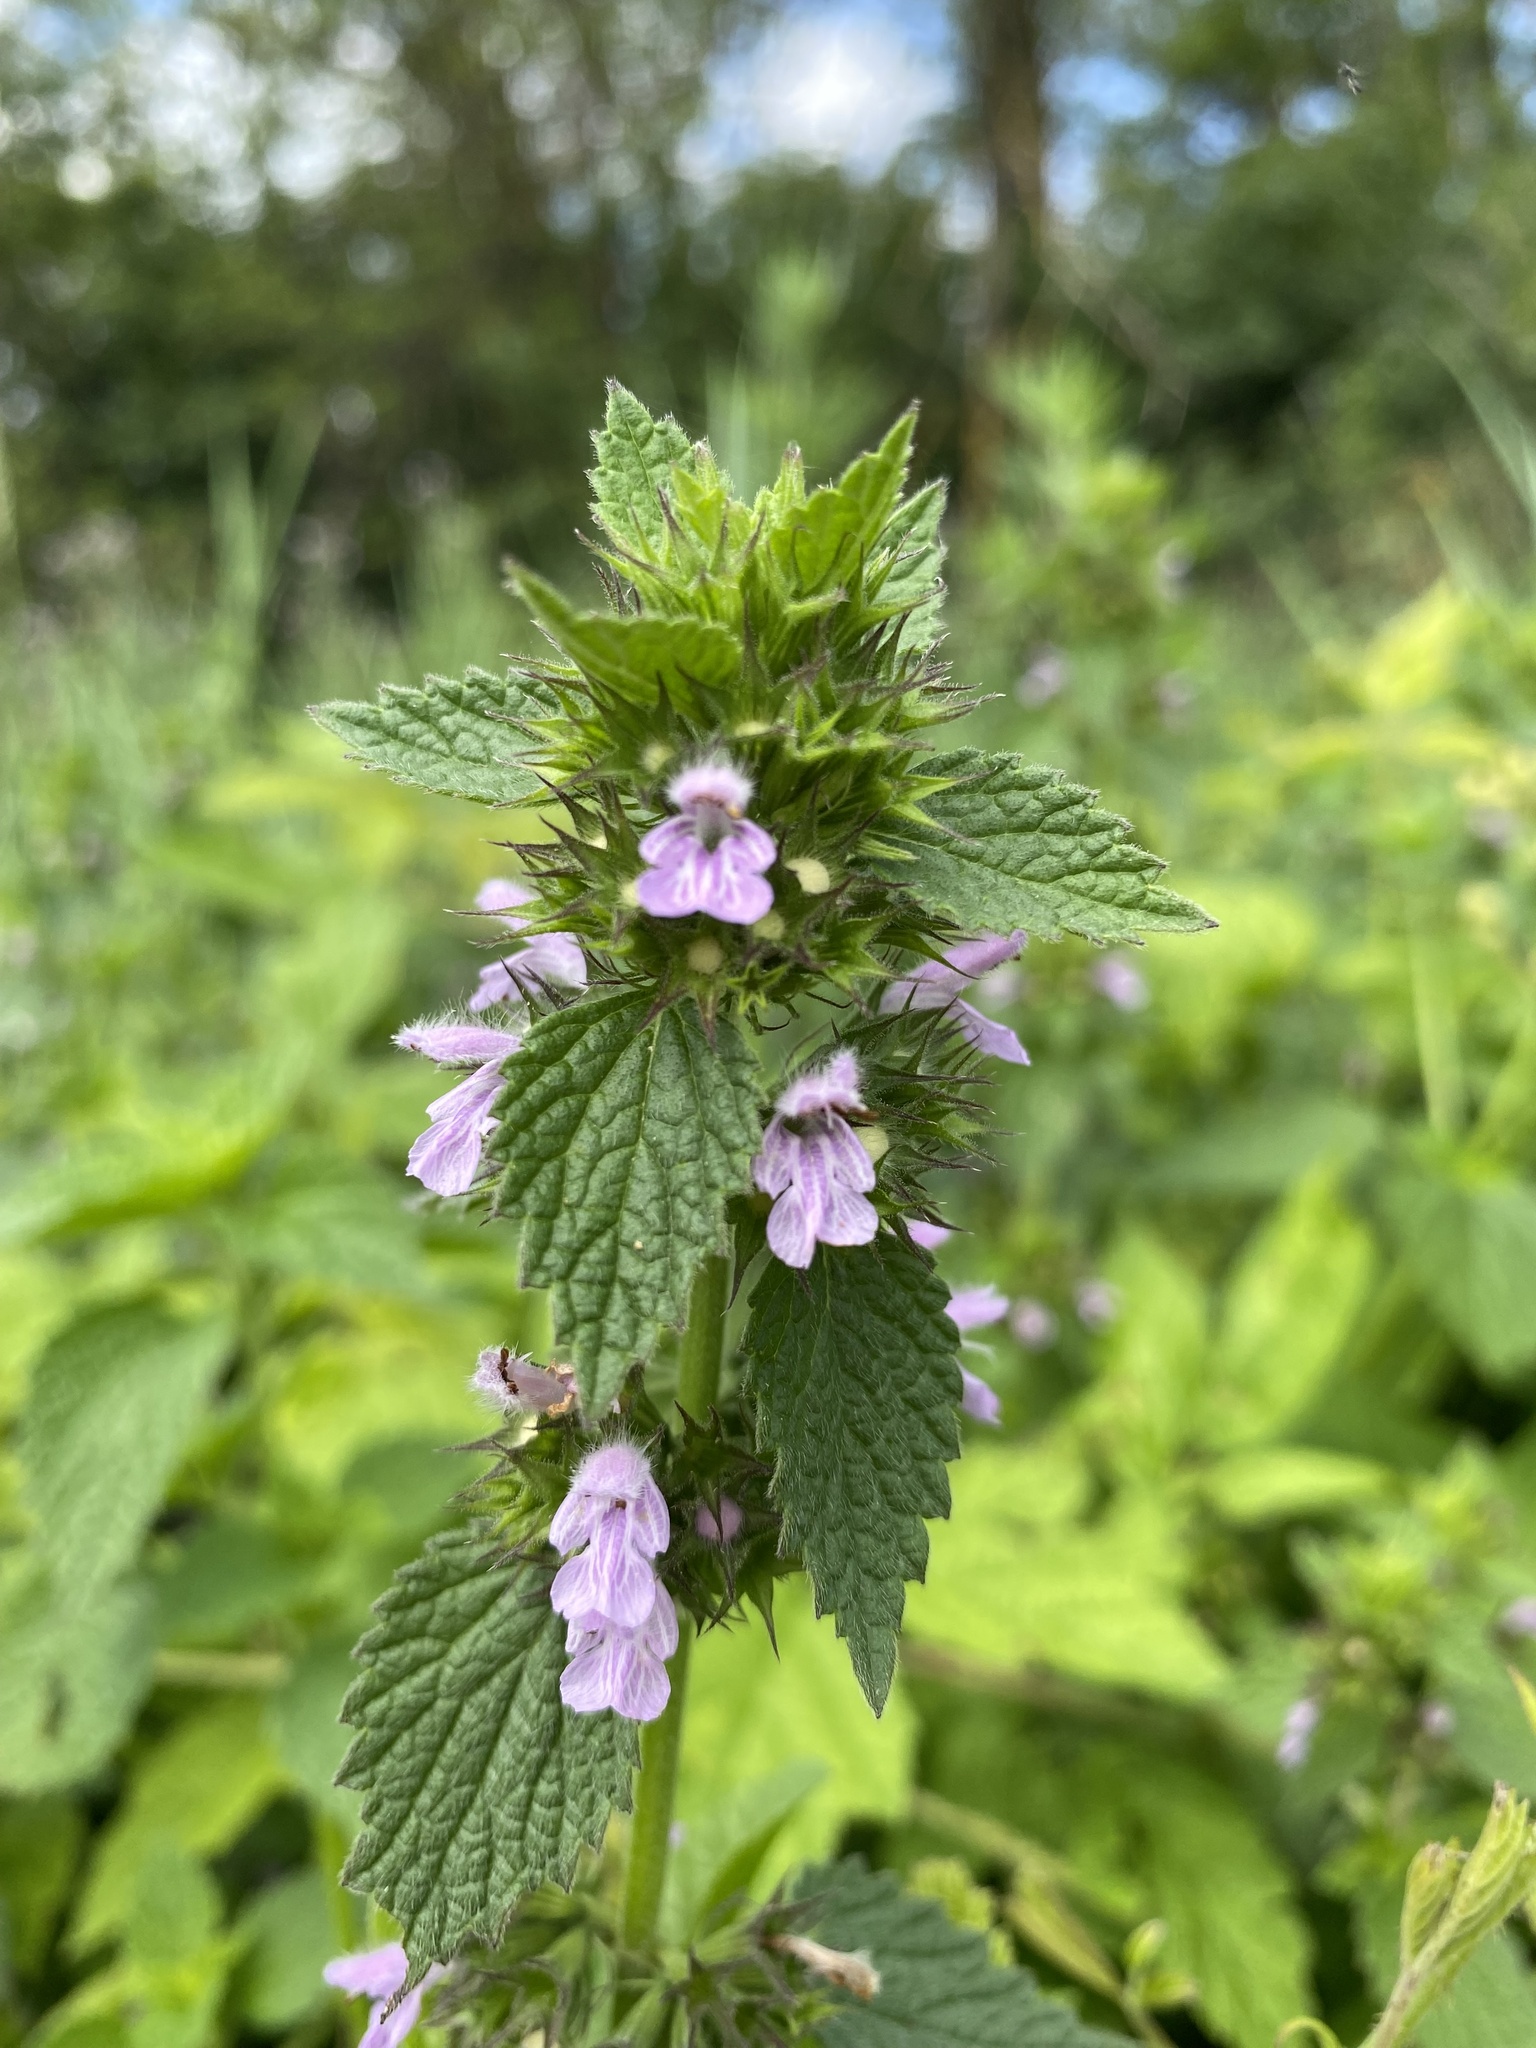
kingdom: Plantae
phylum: Tracheophyta
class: Magnoliopsida
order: Lamiales
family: Lamiaceae
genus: Ballota
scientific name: Ballota nigra
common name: Black horehound
